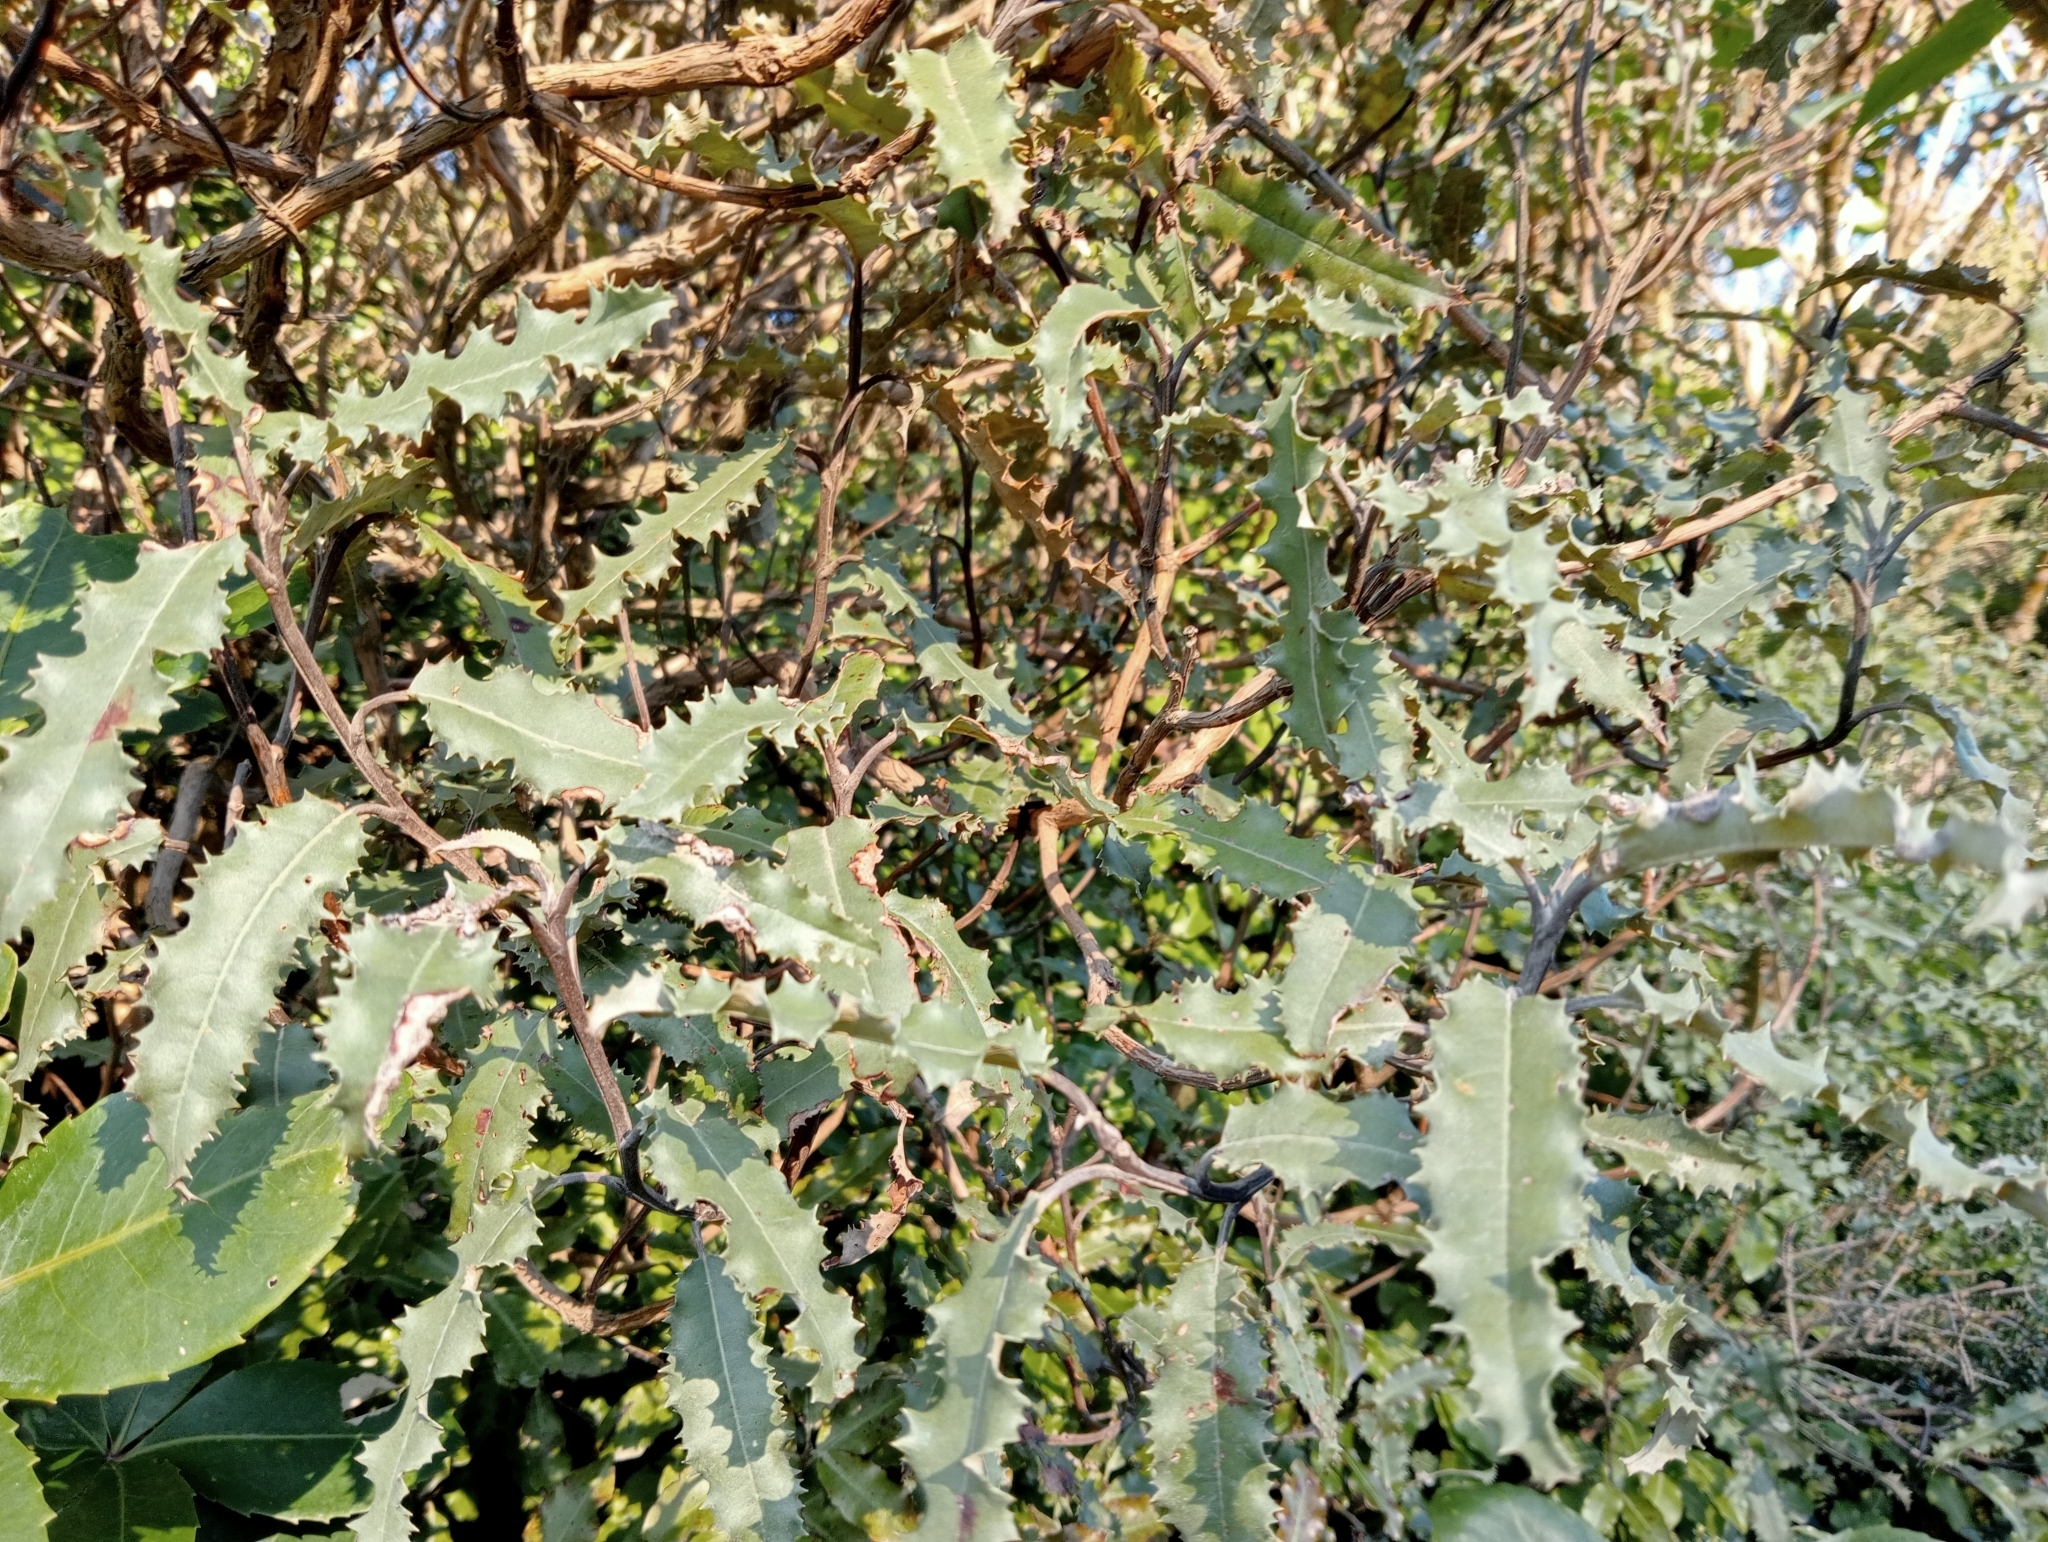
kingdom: Plantae
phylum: Tracheophyta
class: Magnoliopsida
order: Asterales
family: Asteraceae
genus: Olearia
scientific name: Olearia ilicifolia
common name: Maori-holly
